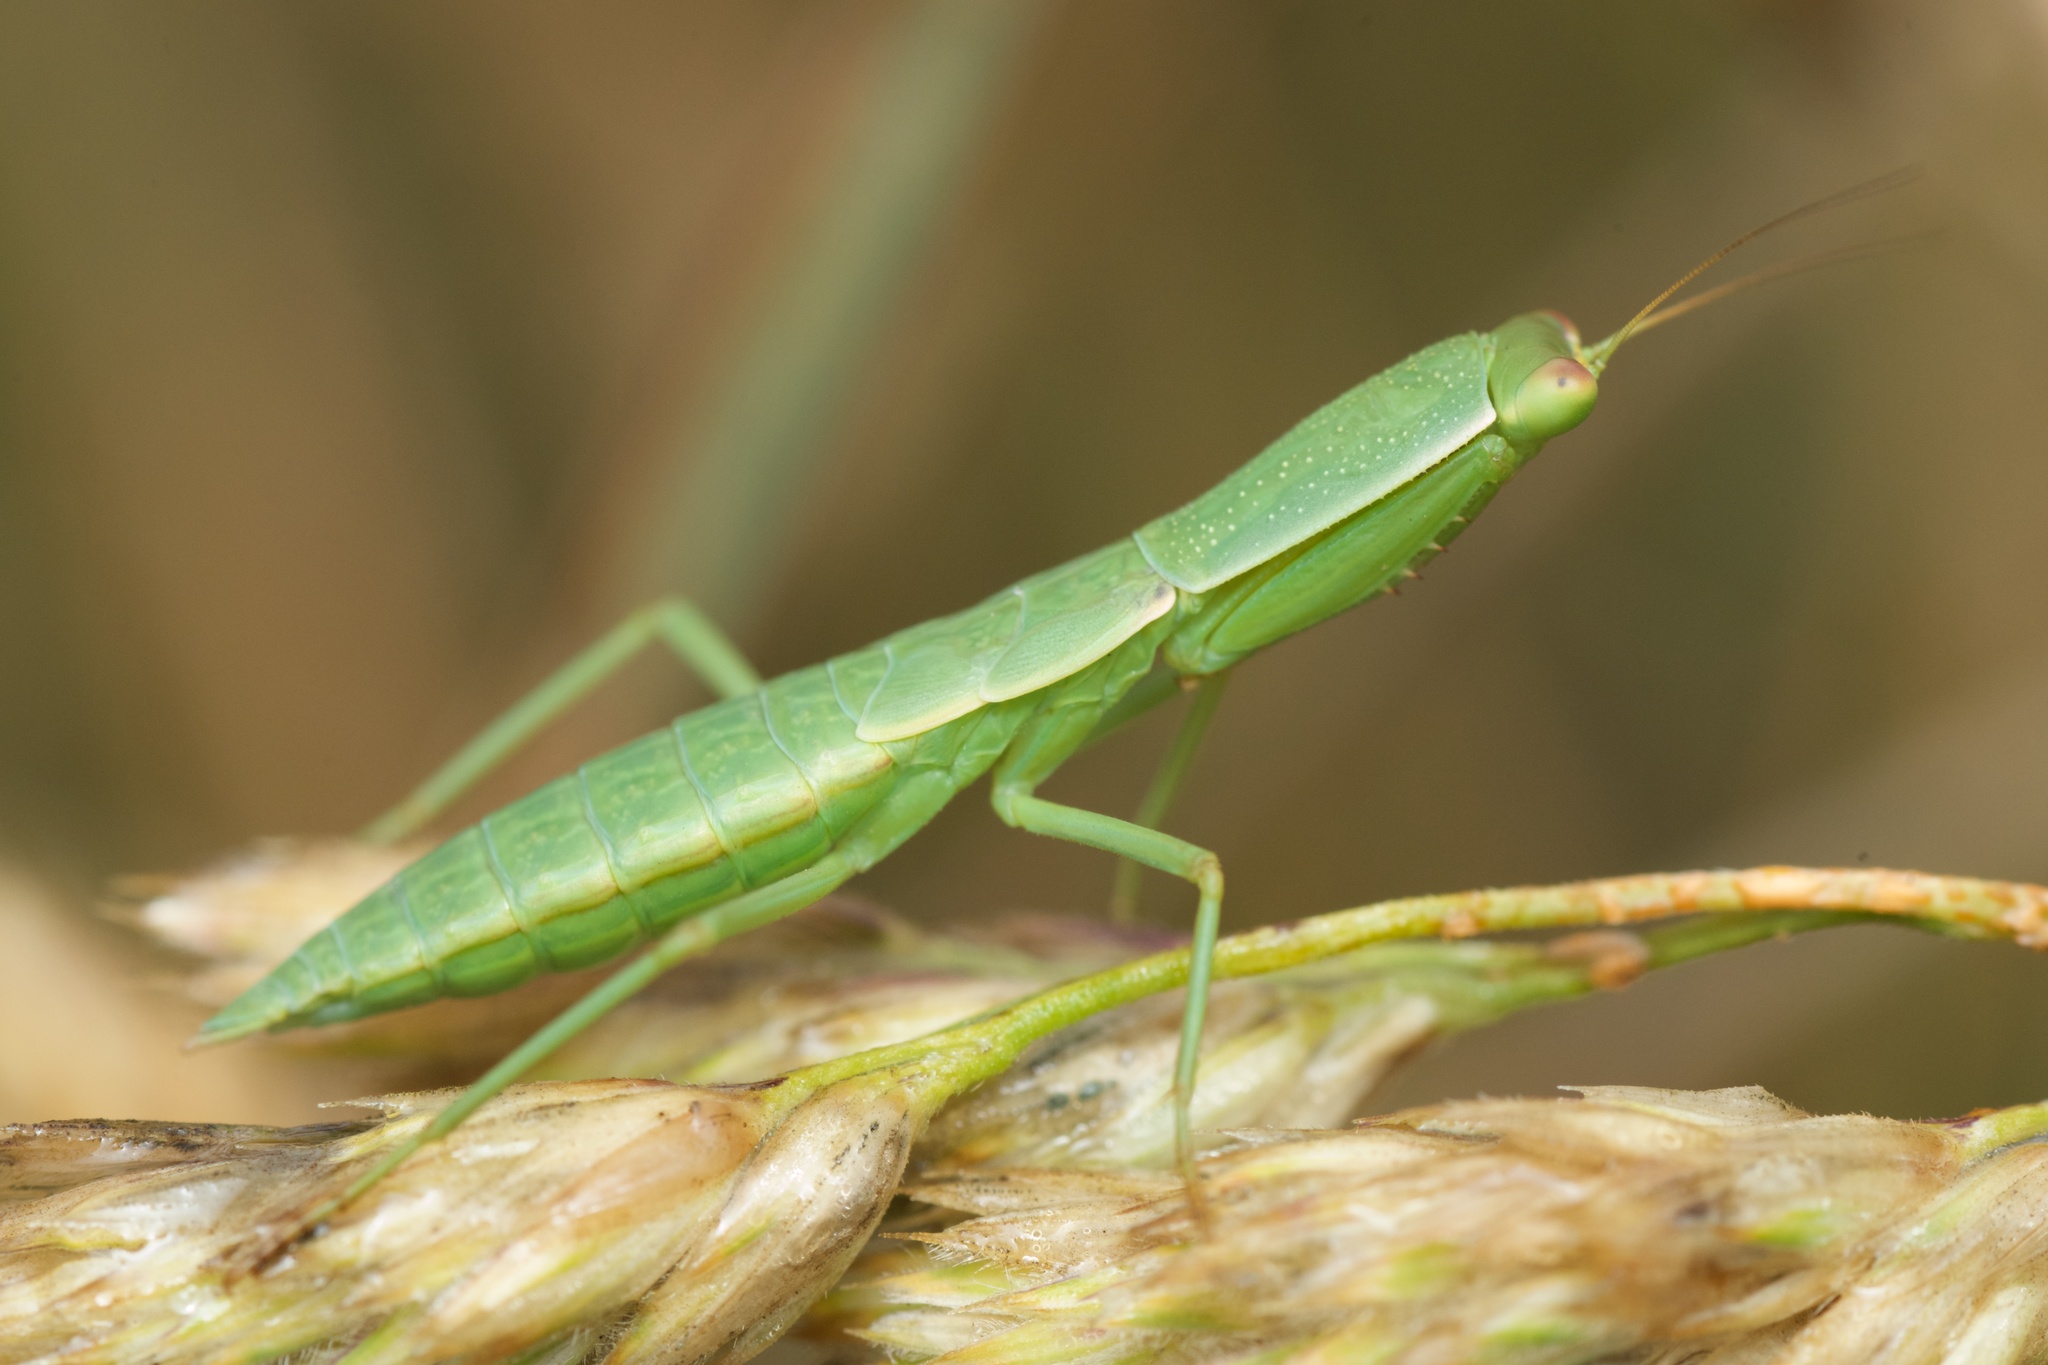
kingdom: Animalia
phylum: Arthropoda
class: Insecta
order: Mantodea
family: Mantidae
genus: Orthodera
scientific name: Orthodera novaezealandiae
